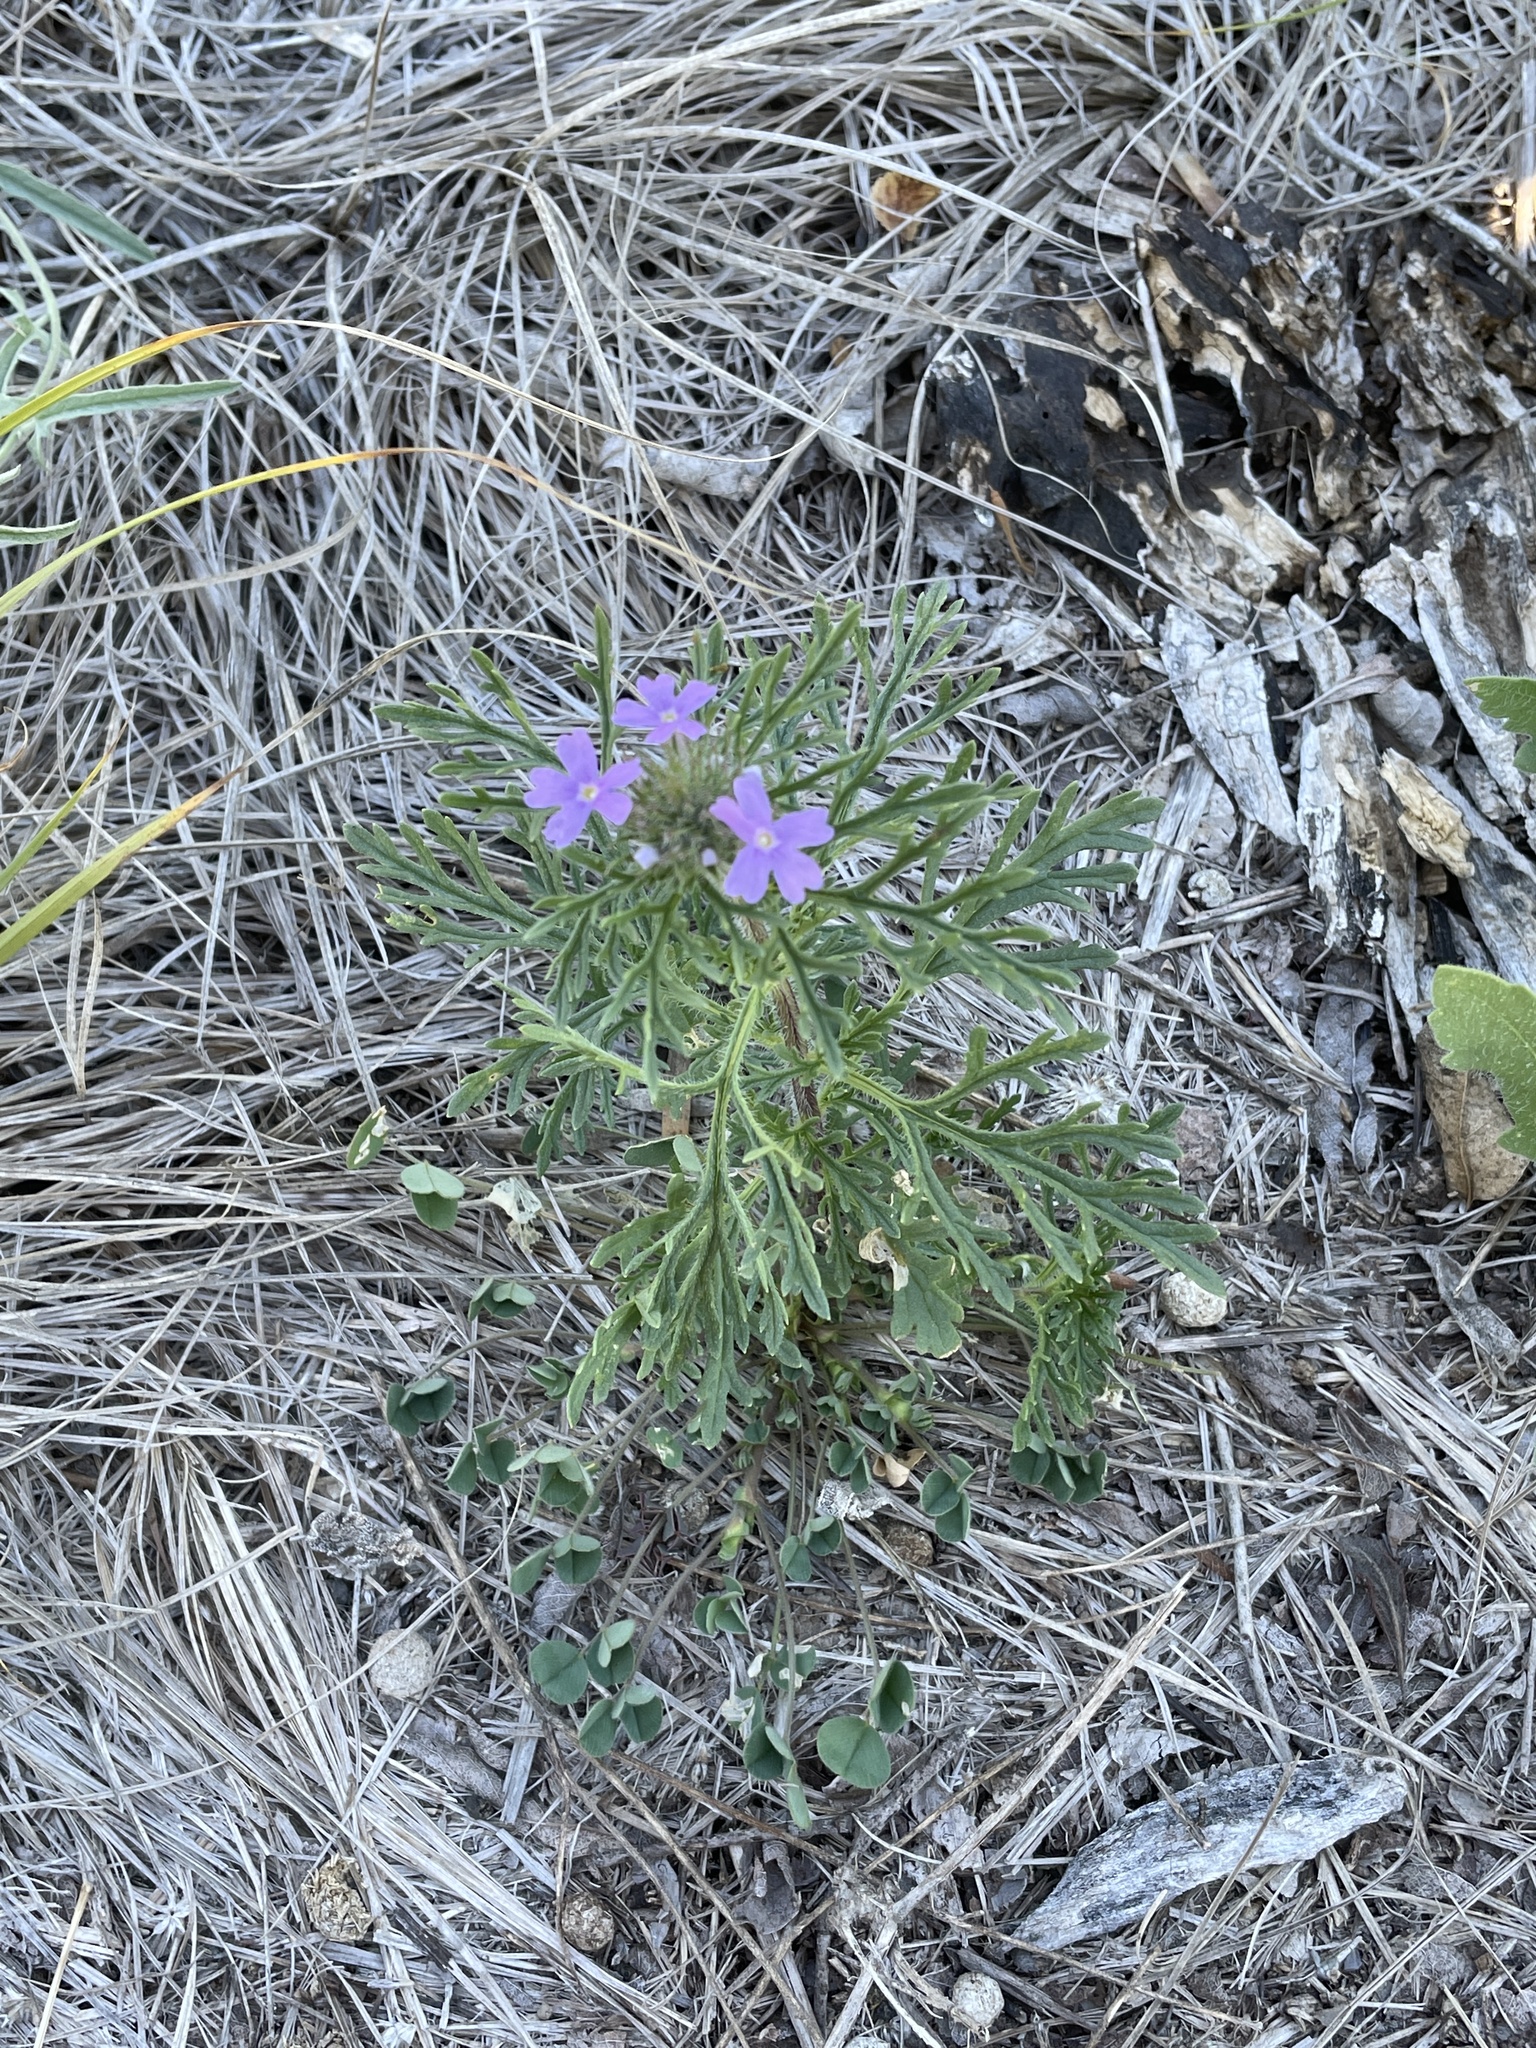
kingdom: Plantae
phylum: Tracheophyta
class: Magnoliopsida
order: Lamiales
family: Verbenaceae
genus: Verbena
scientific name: Verbena bipinnatifida
